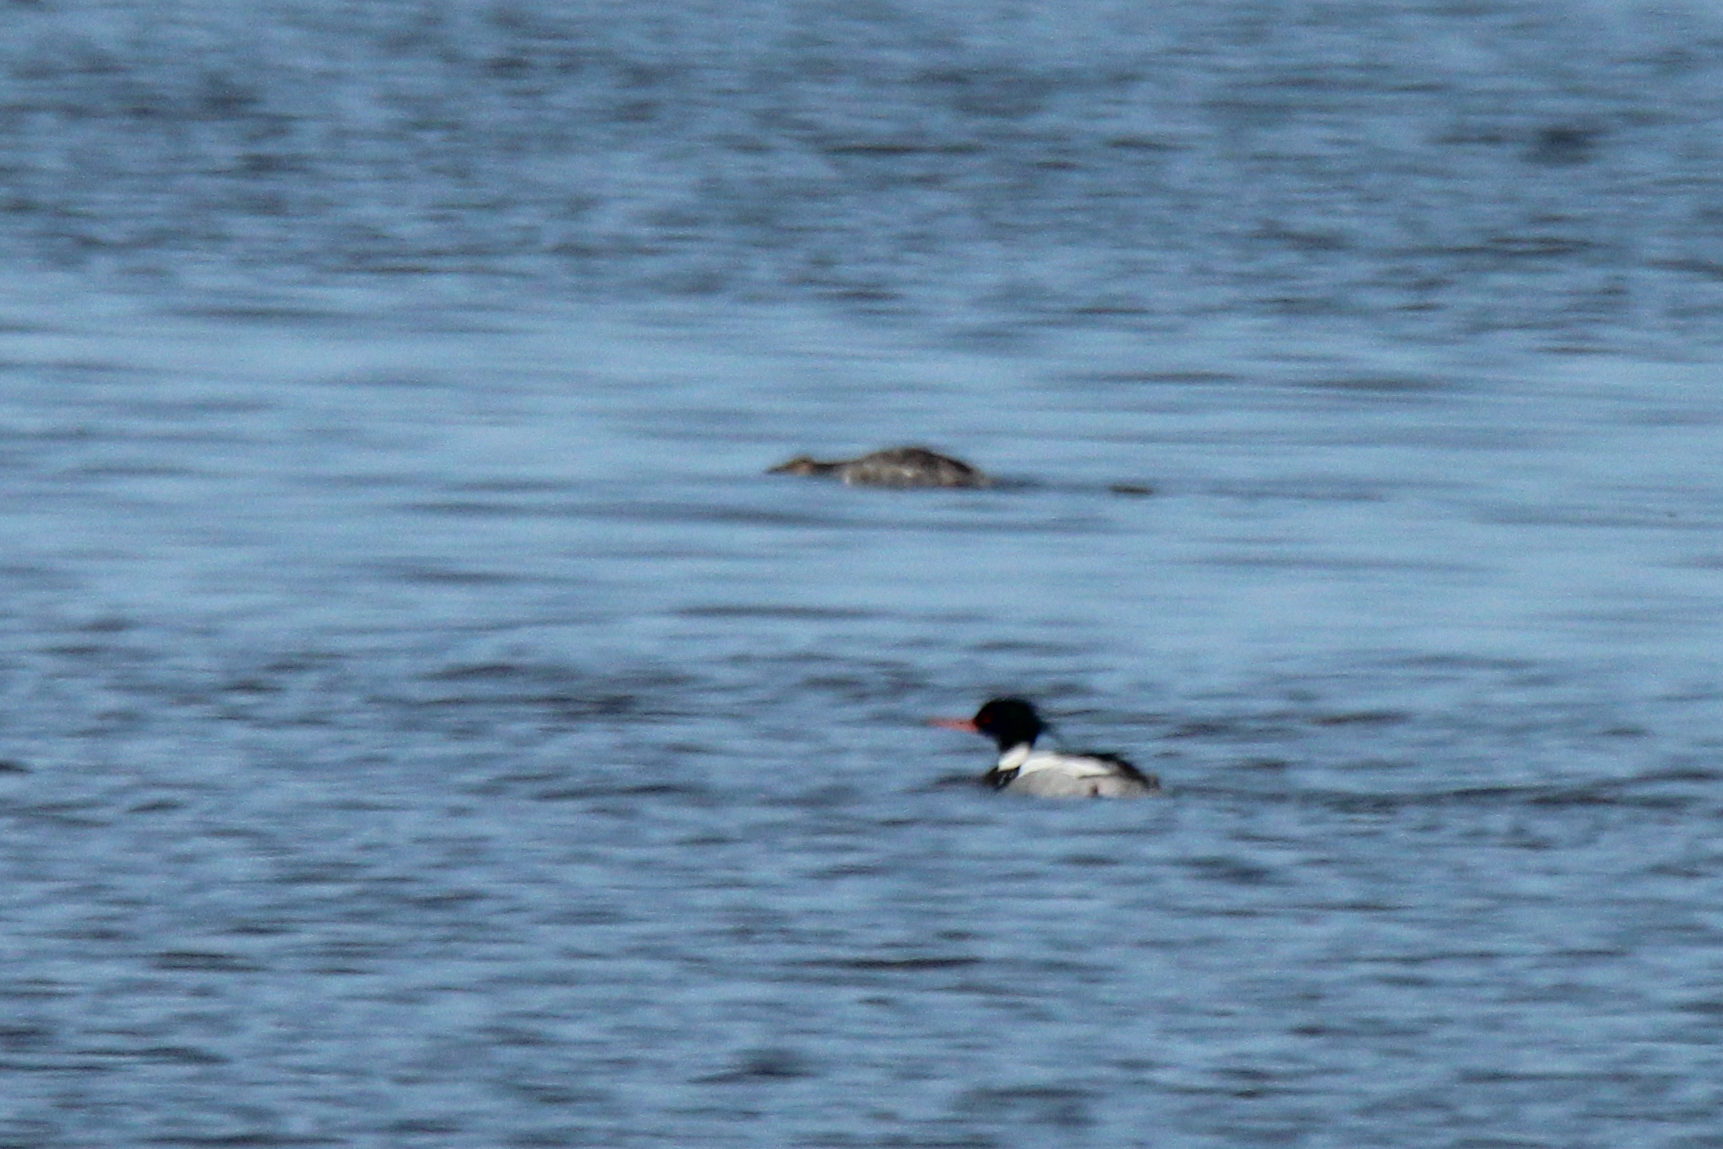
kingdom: Animalia
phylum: Chordata
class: Aves
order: Anseriformes
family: Anatidae
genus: Mergus
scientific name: Mergus serrator
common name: Red-breasted merganser
